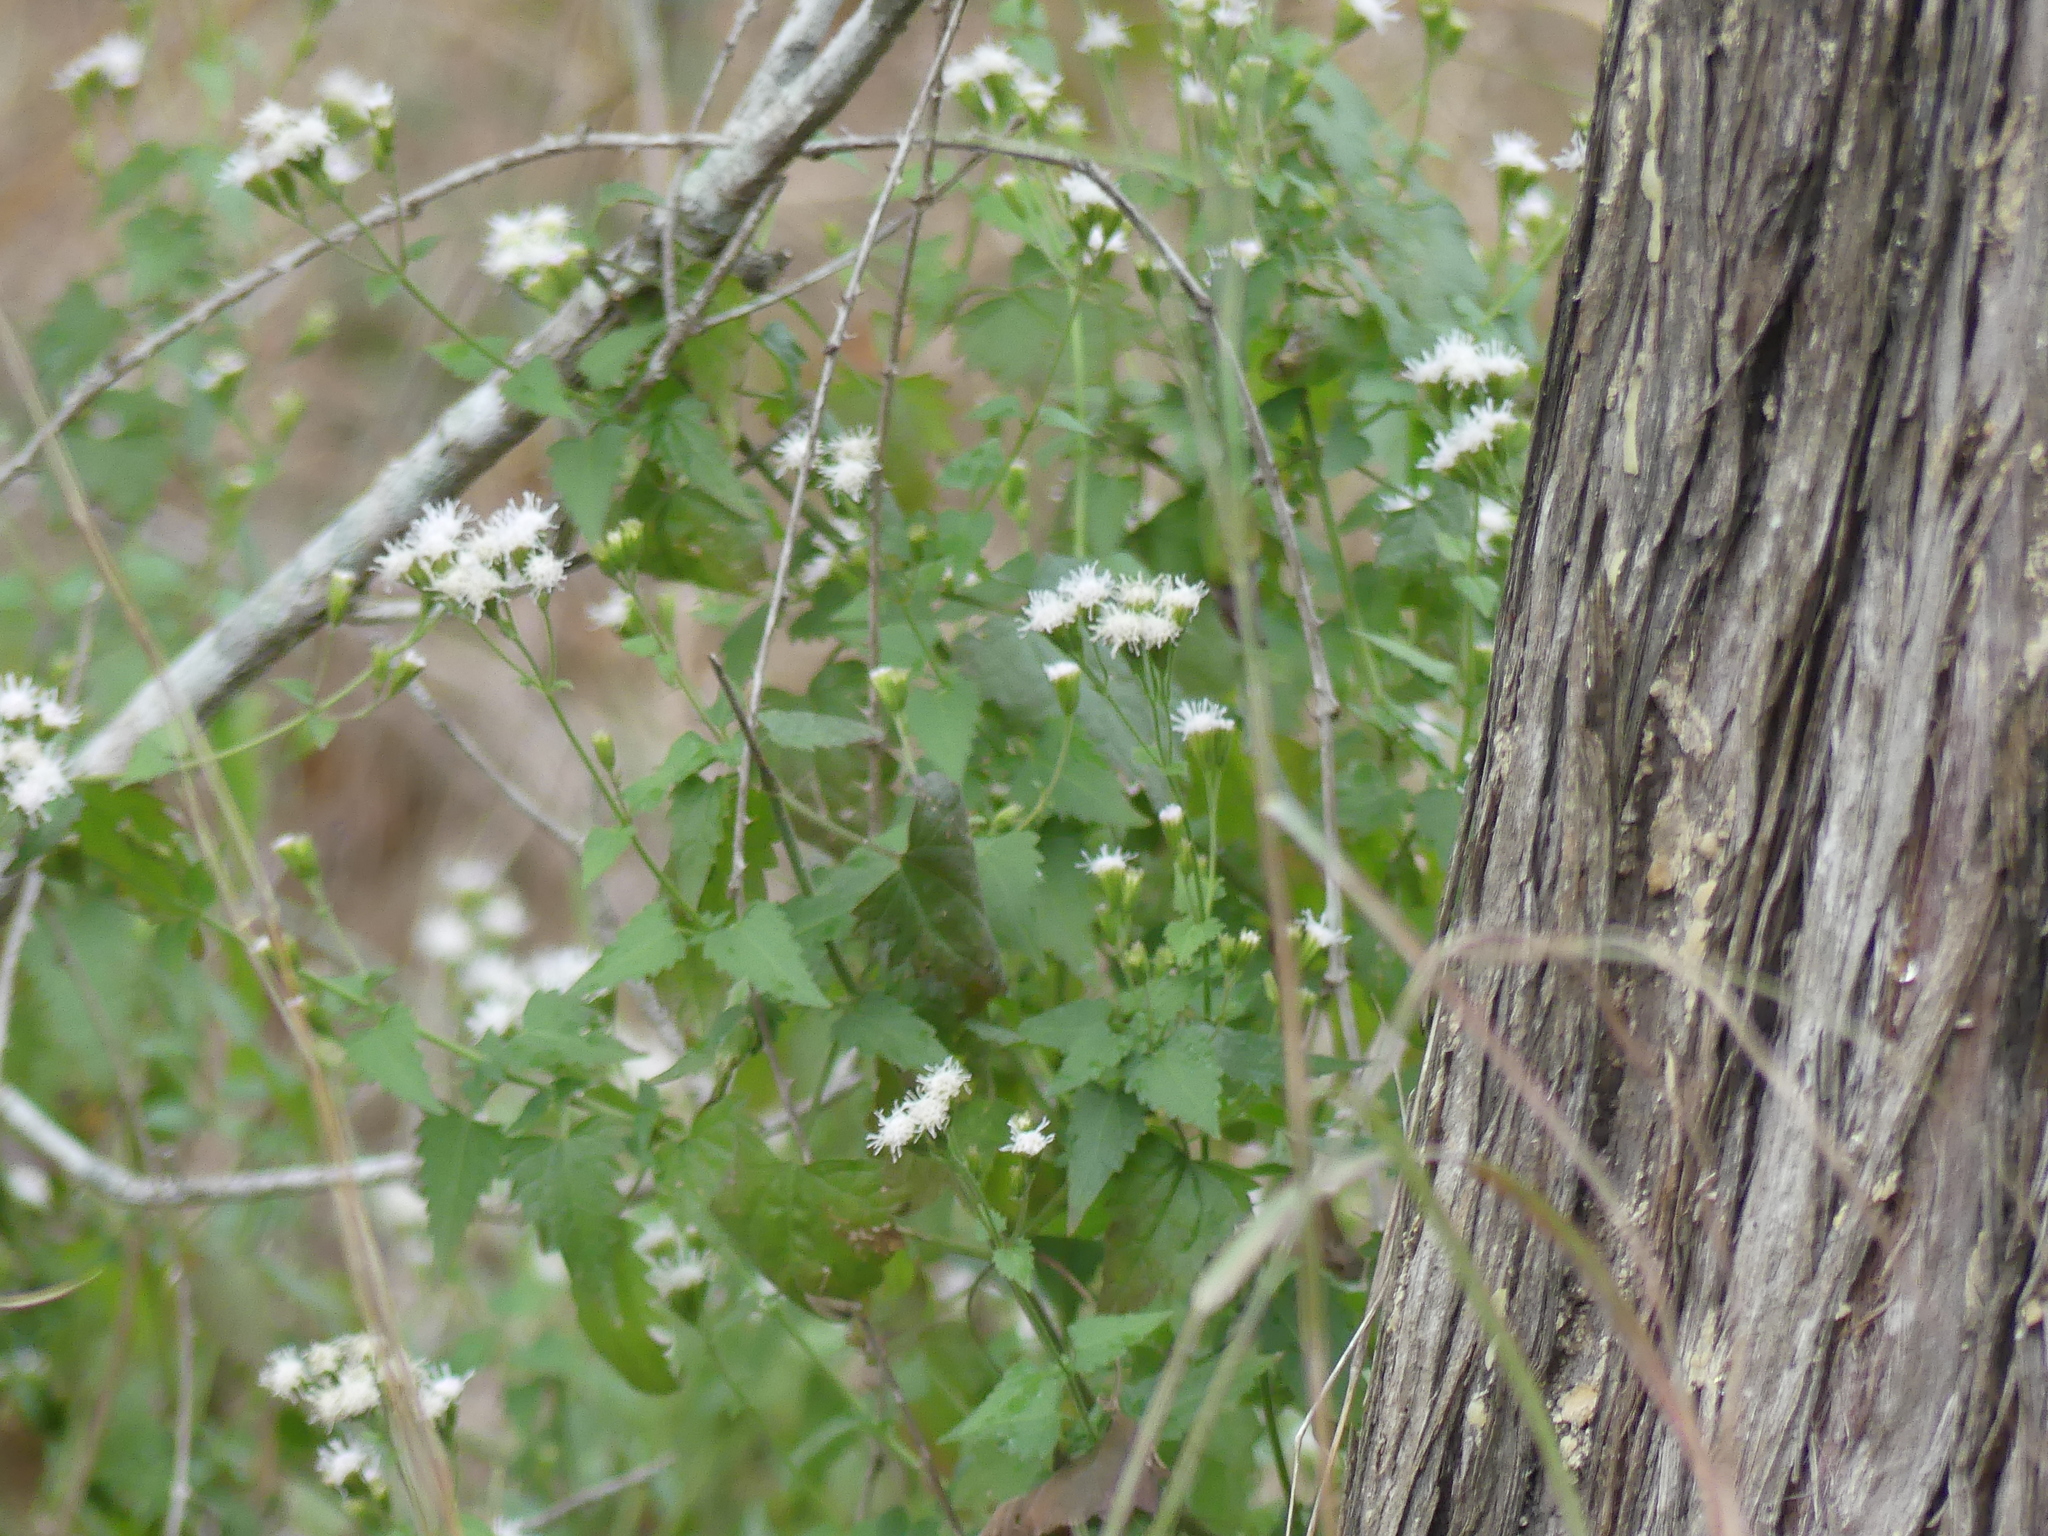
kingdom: Plantae
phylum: Tracheophyta
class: Magnoliopsida
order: Asterales
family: Asteraceae
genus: Fleischmannia
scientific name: Fleischmannia incarnata
